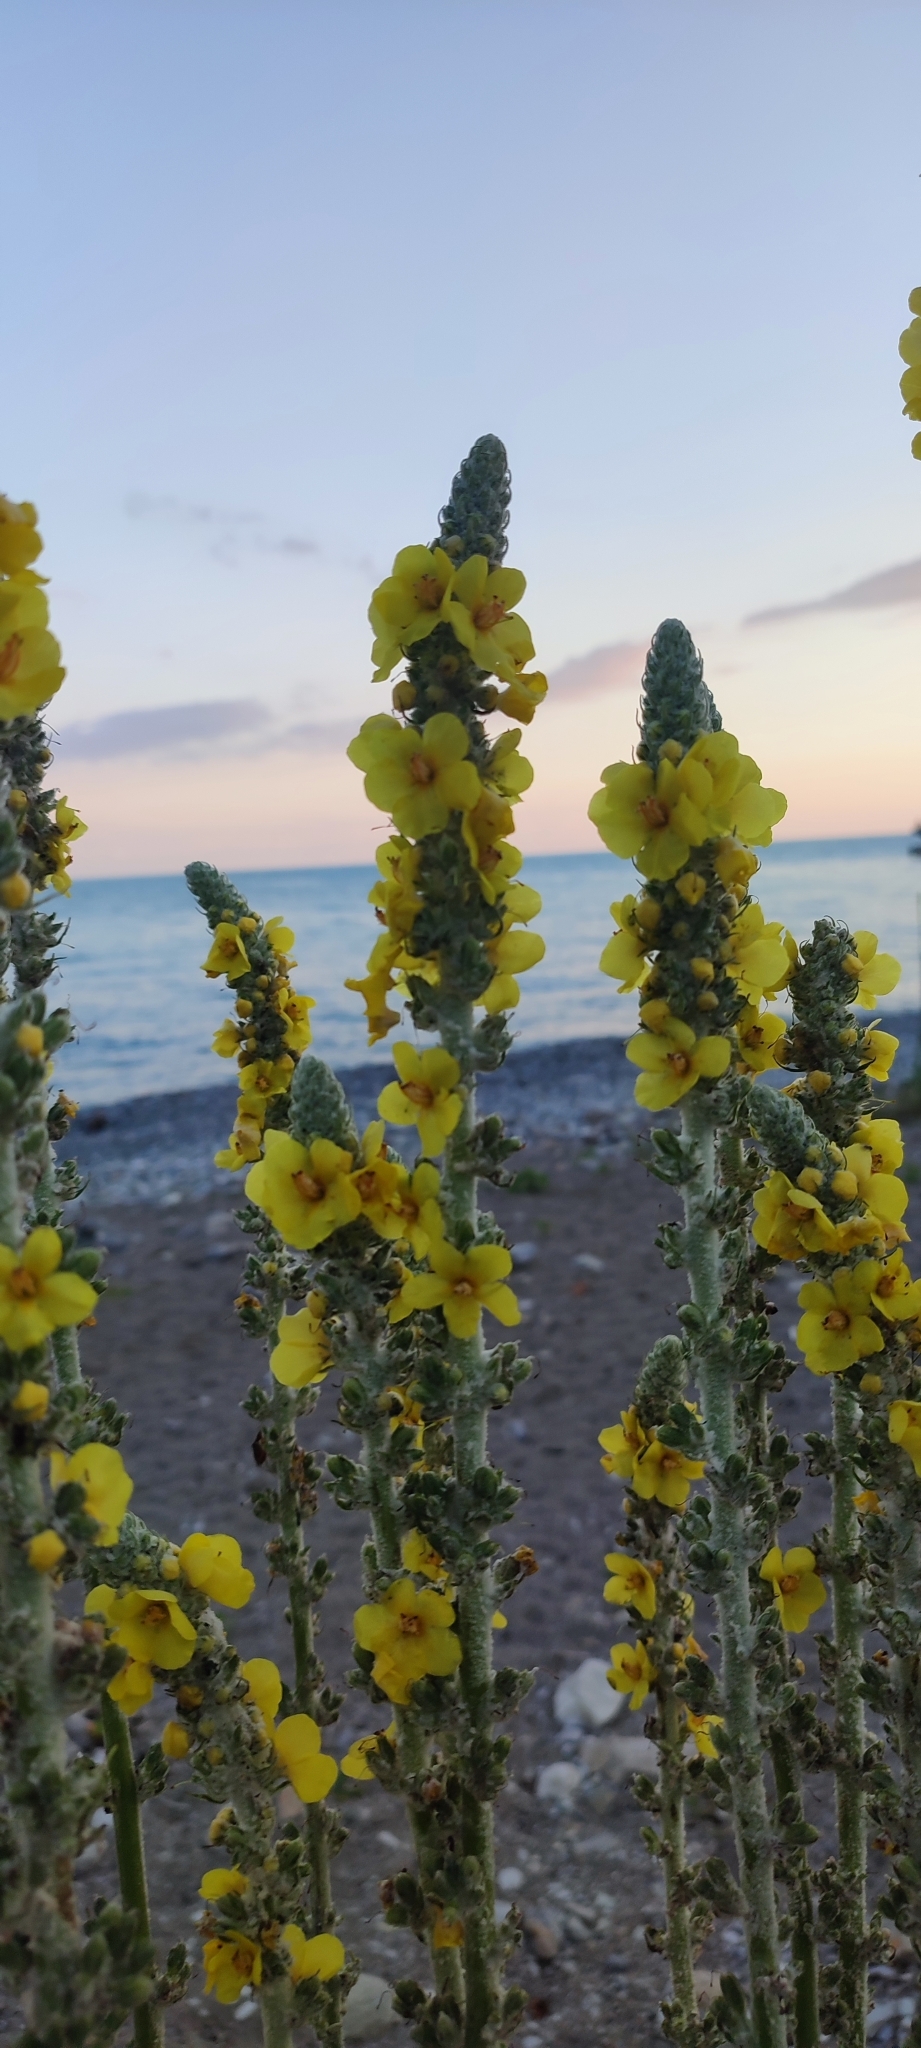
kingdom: Plantae
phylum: Tracheophyta
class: Magnoliopsida
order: Lamiales
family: Scrophulariaceae
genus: Verbascum
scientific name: Verbascum gnaphalodes
